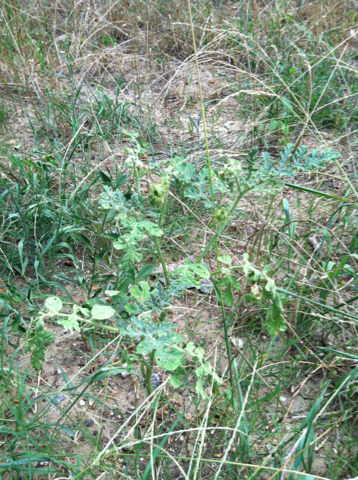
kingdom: Plantae
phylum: Tracheophyta
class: Magnoliopsida
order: Solanales
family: Solanaceae
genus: Solanum
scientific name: Solanum angustifolium
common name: Buffalobur nightshade
